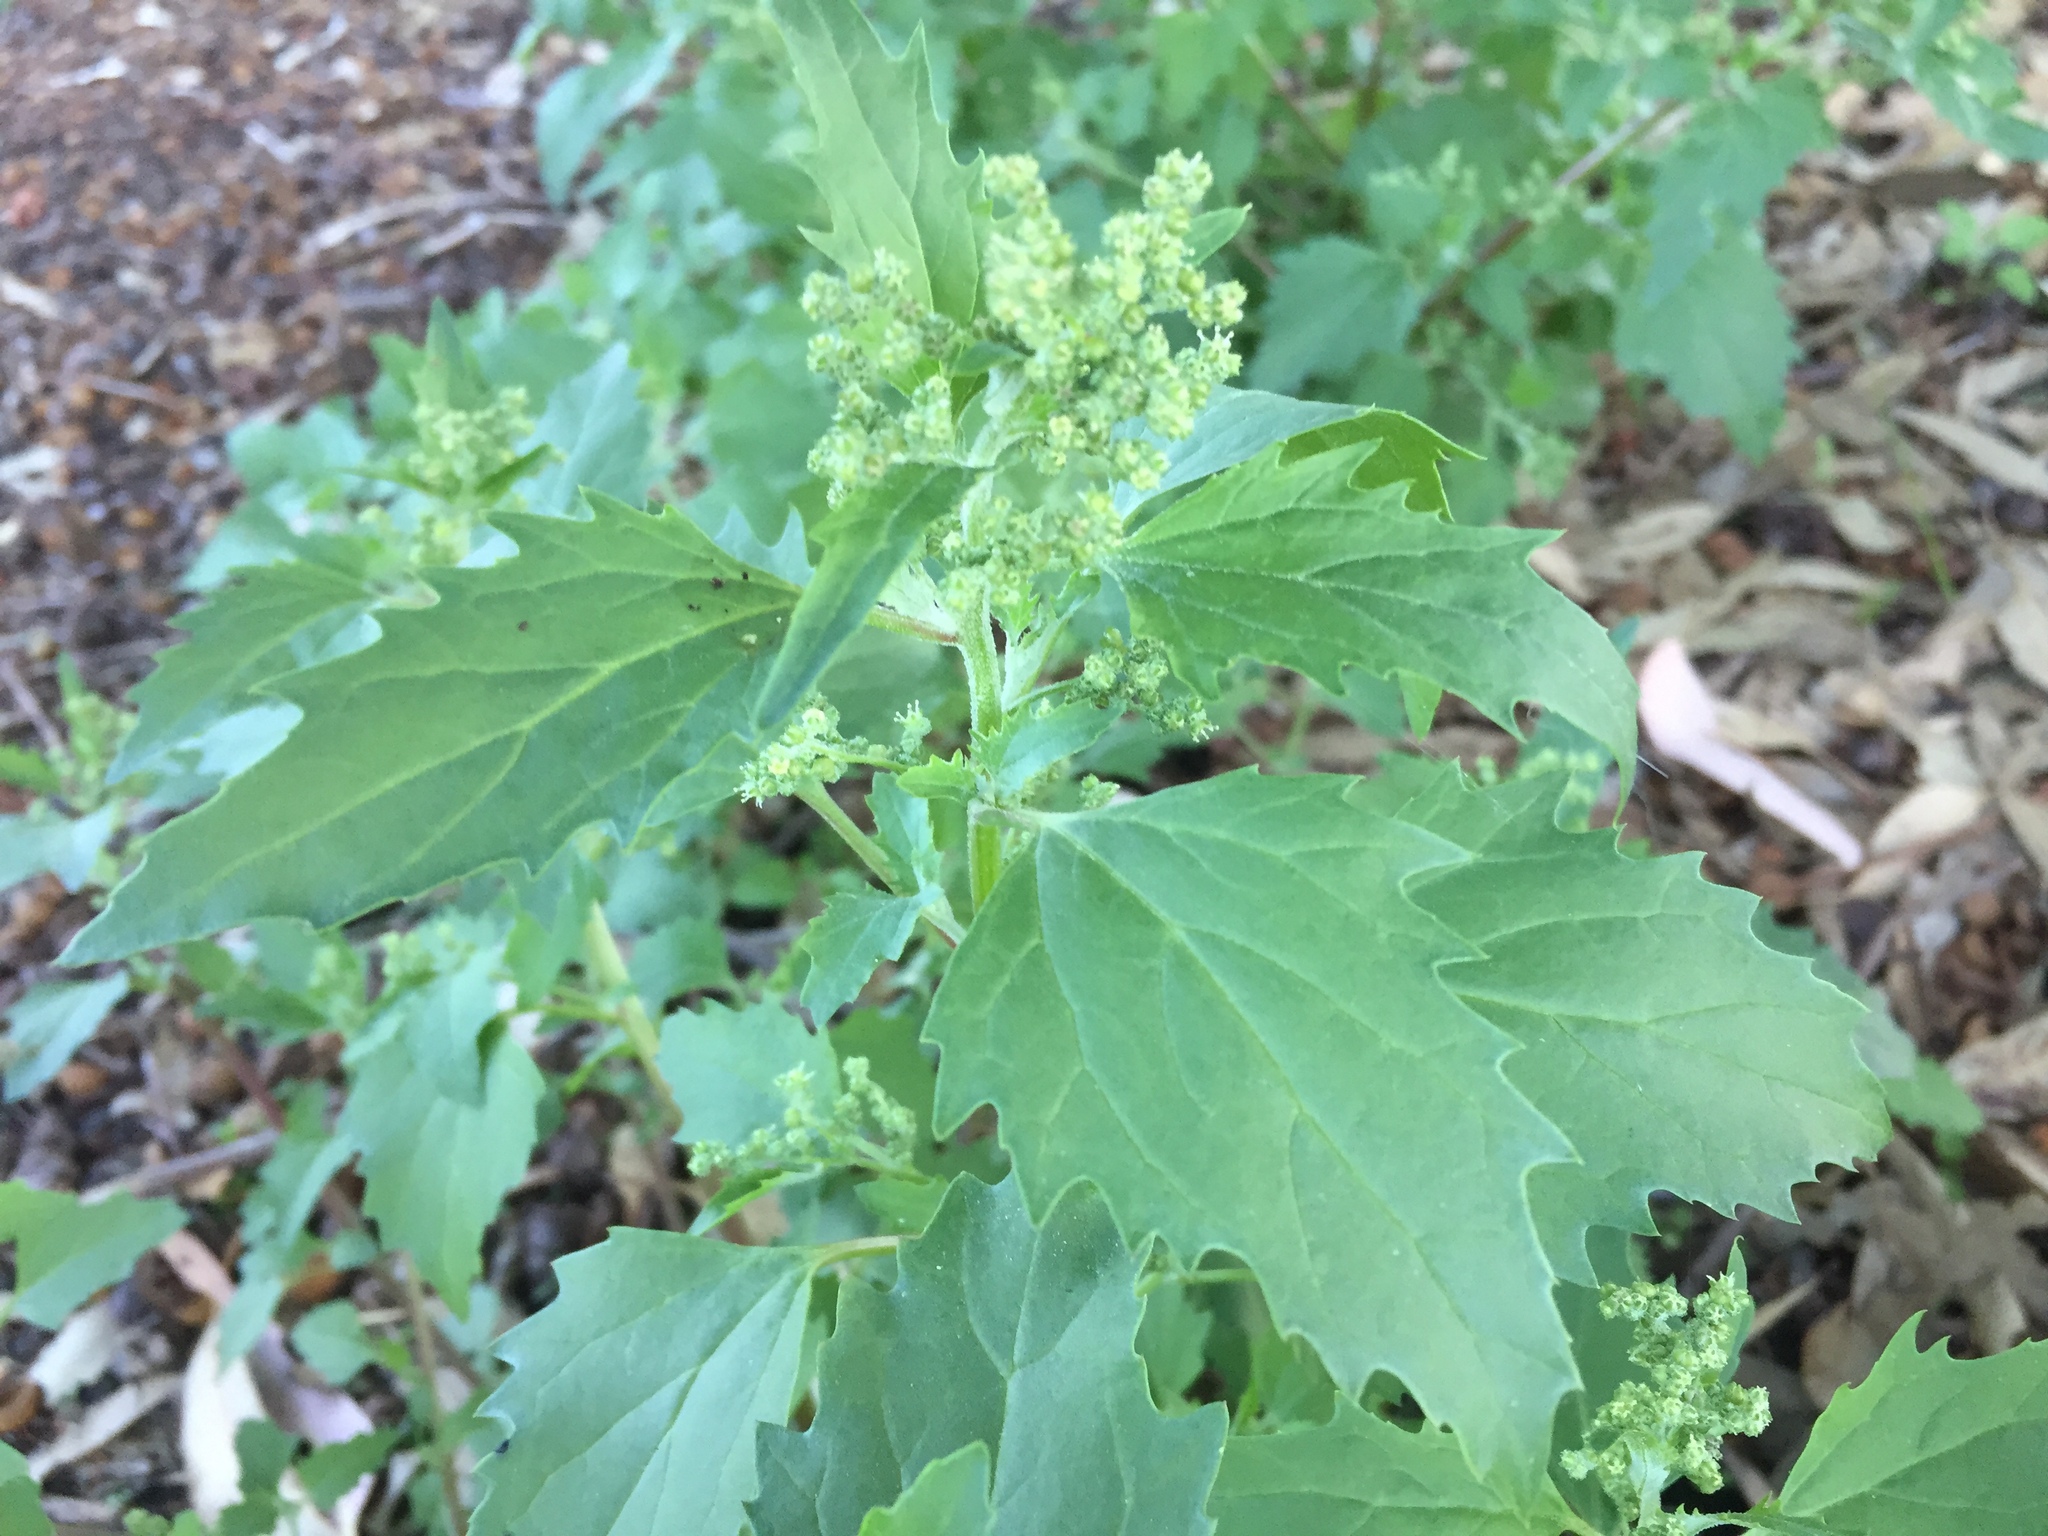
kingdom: Plantae
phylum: Tracheophyta
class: Magnoliopsida
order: Caryophyllales
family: Amaranthaceae
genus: Chenopodiastrum
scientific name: Chenopodiastrum murale
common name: Sowbane
